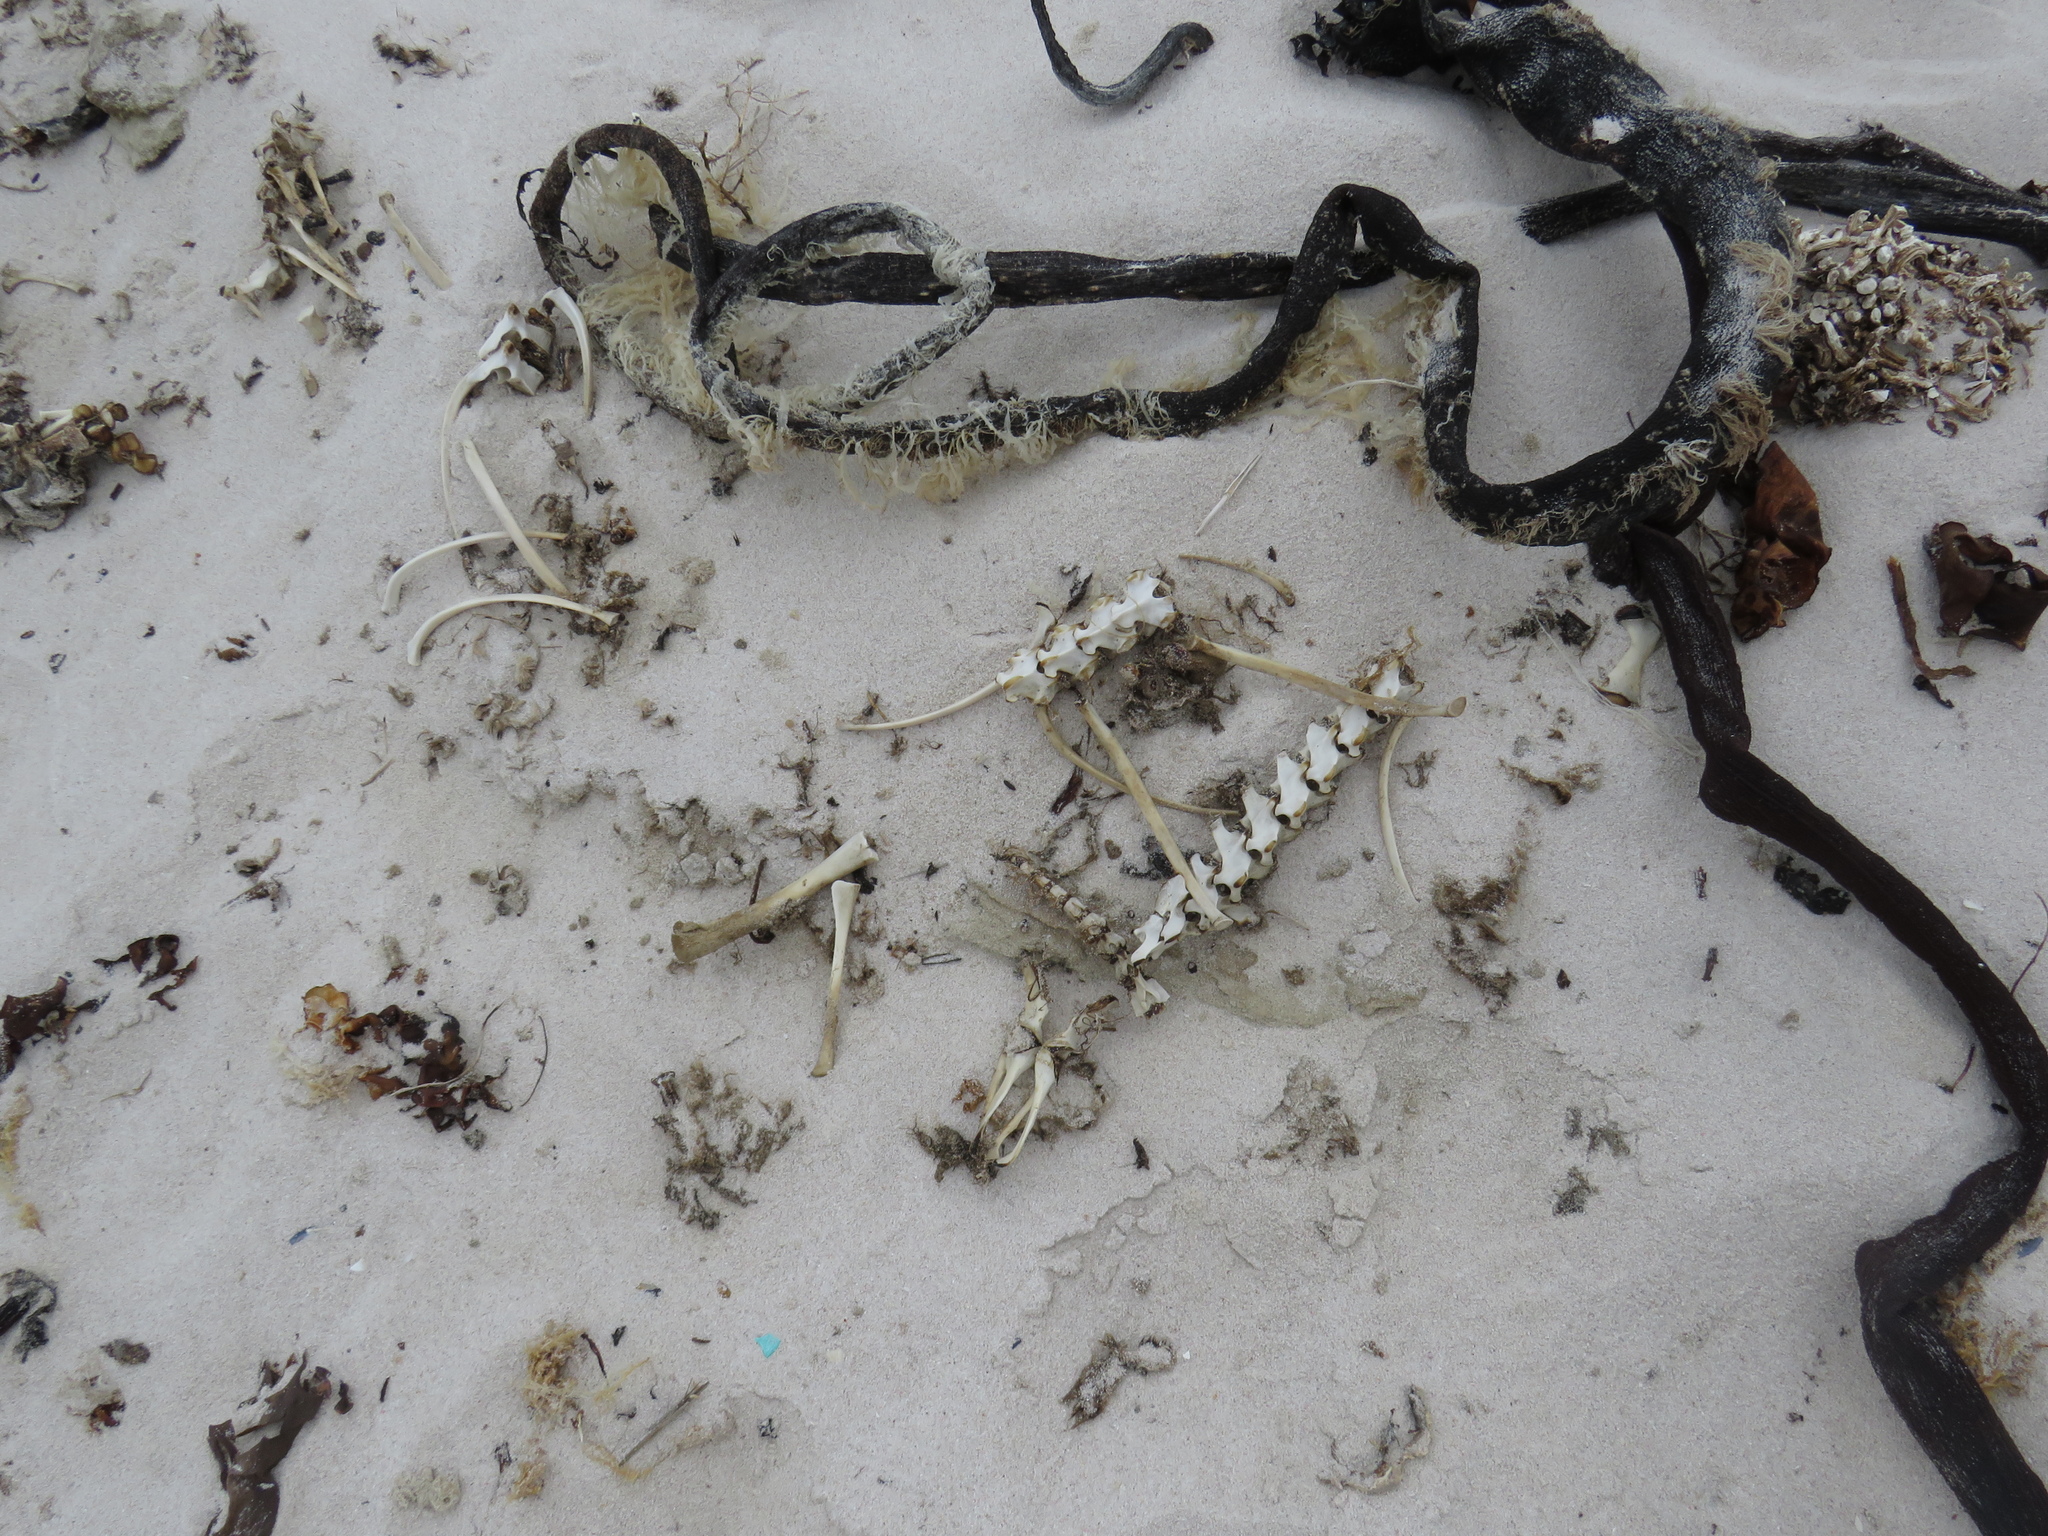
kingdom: Animalia
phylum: Chordata
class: Mammalia
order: Carnivora
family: Otariidae
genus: Arctocephalus
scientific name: Arctocephalus pusillus
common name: Brown fur seal
